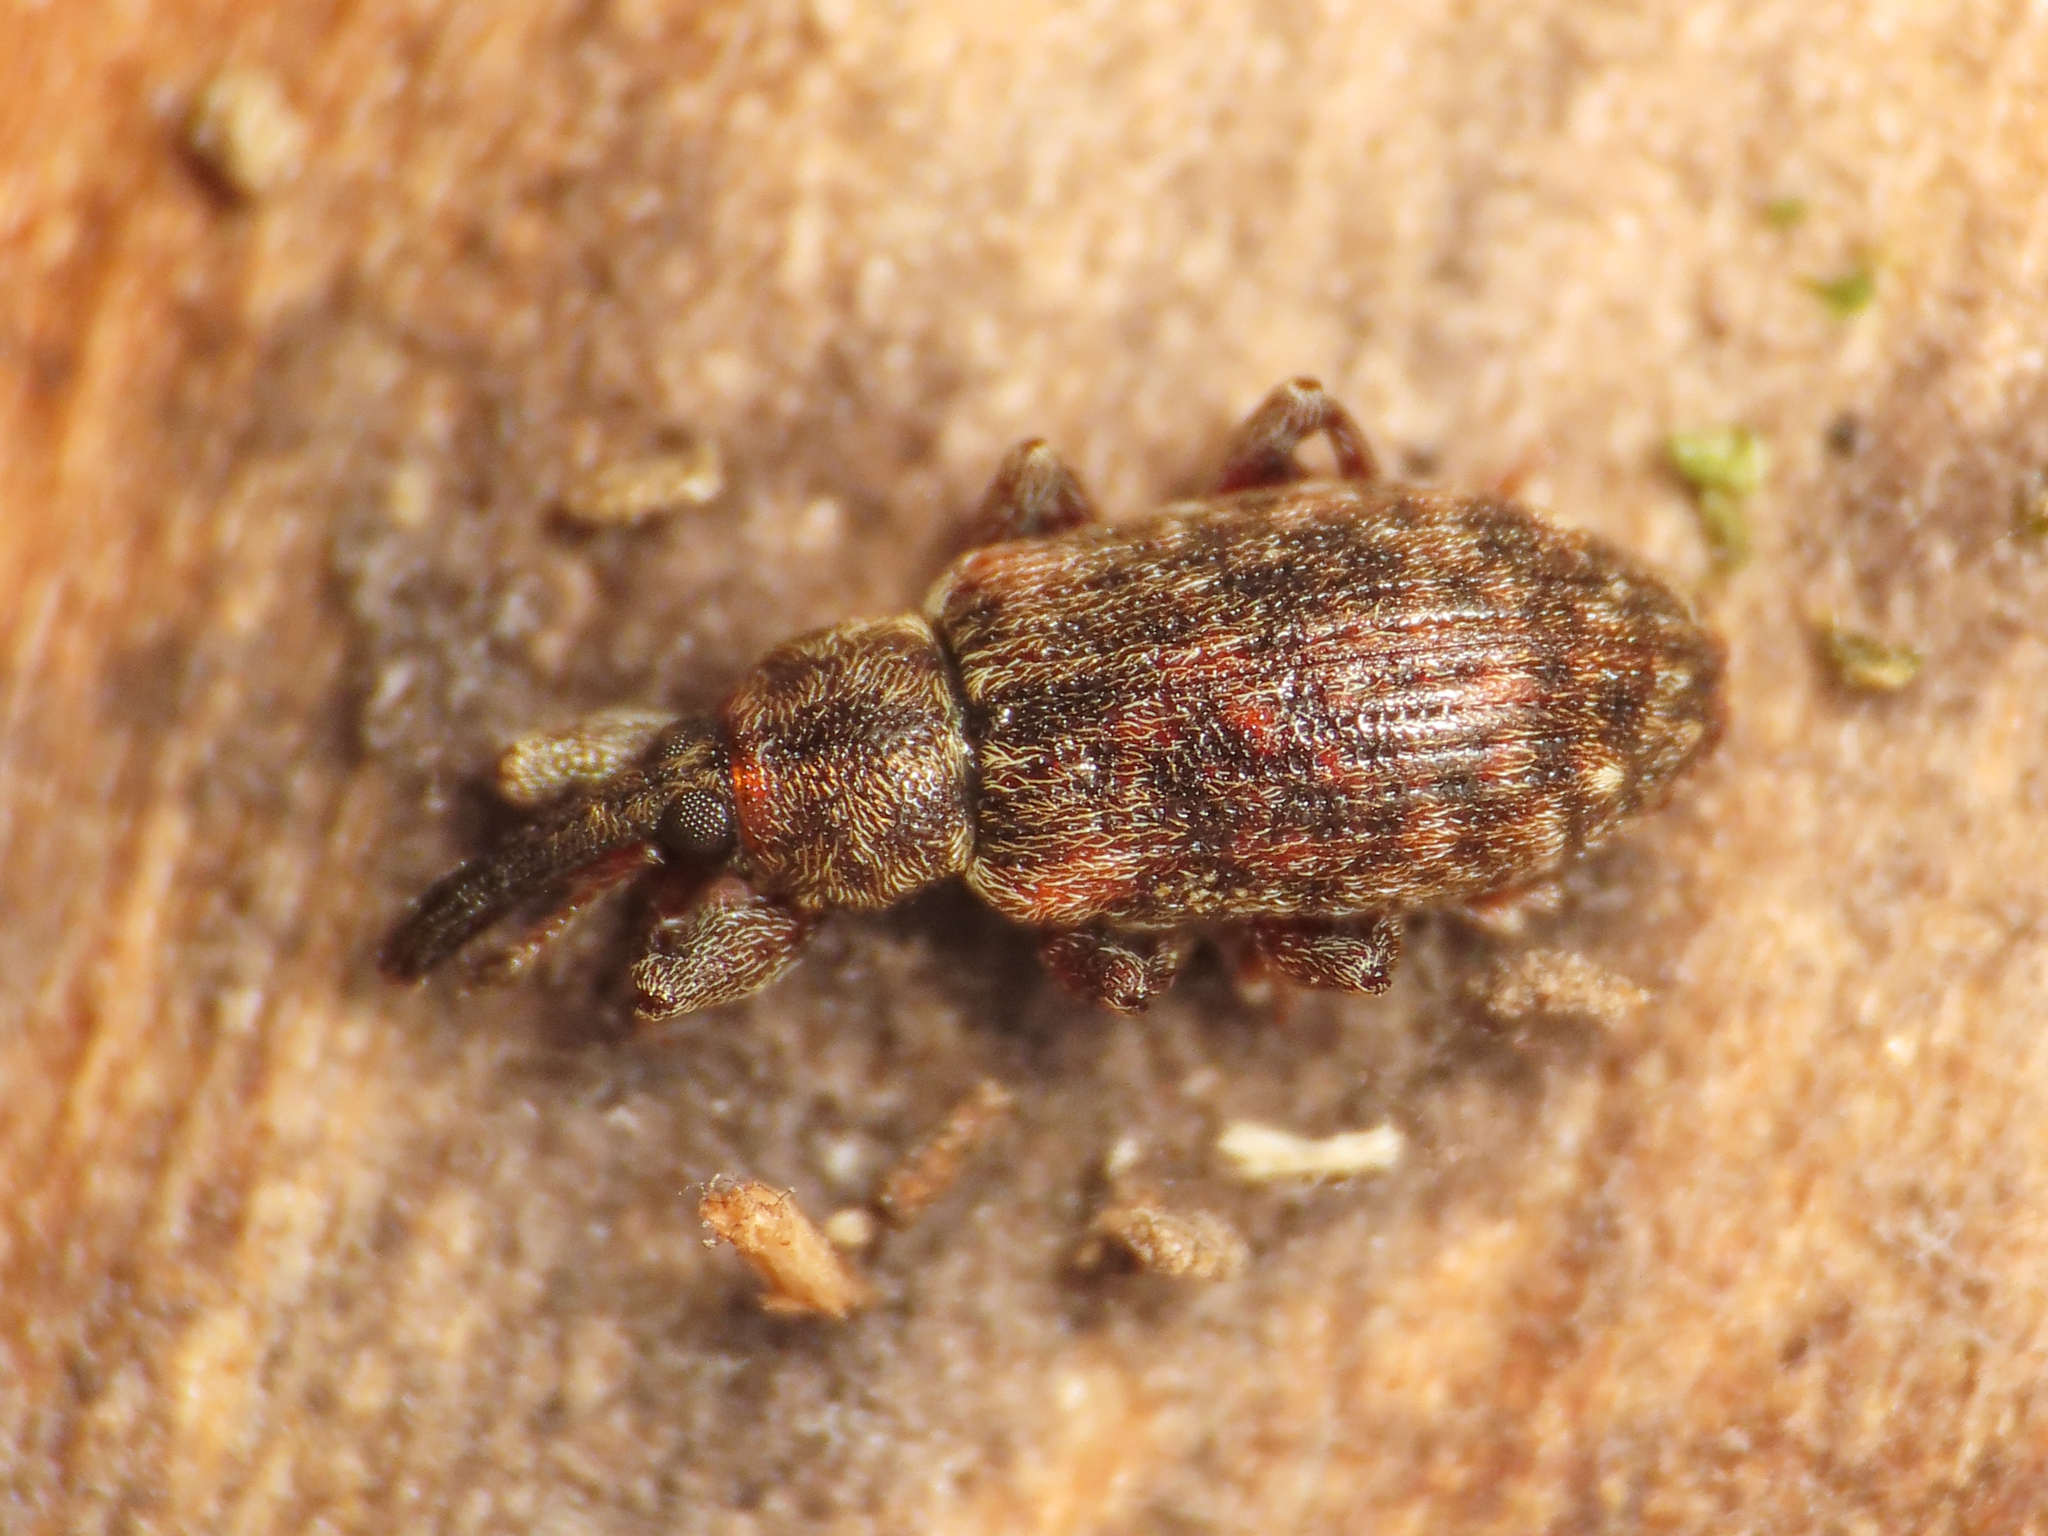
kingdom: Animalia
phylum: Arthropoda
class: Insecta
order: Coleoptera
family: Curculionidae
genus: Dorytomus
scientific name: Dorytomus dejeani
